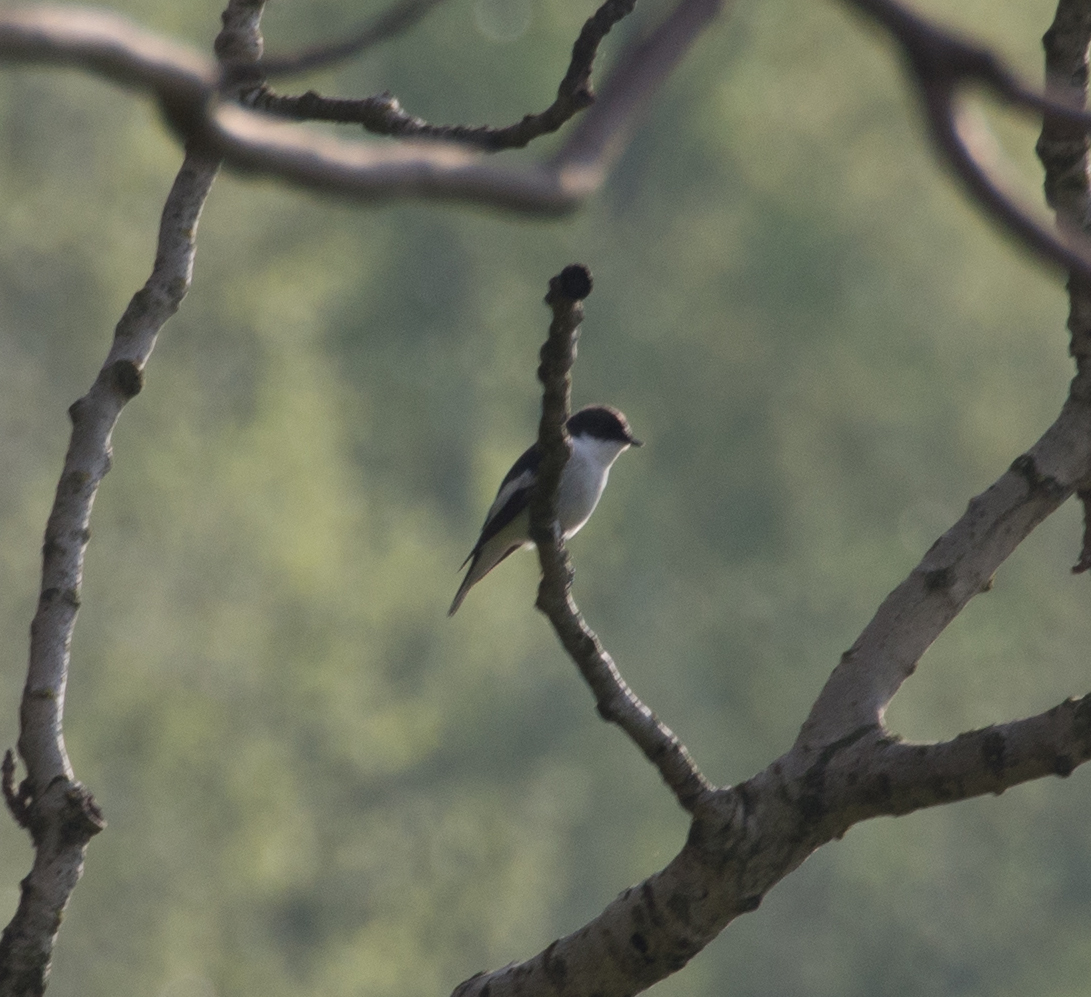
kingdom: Animalia
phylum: Chordata
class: Aves
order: Passeriformes
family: Muscicapidae
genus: Ficedula
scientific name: Ficedula hypoleuca
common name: European pied flycatcher
